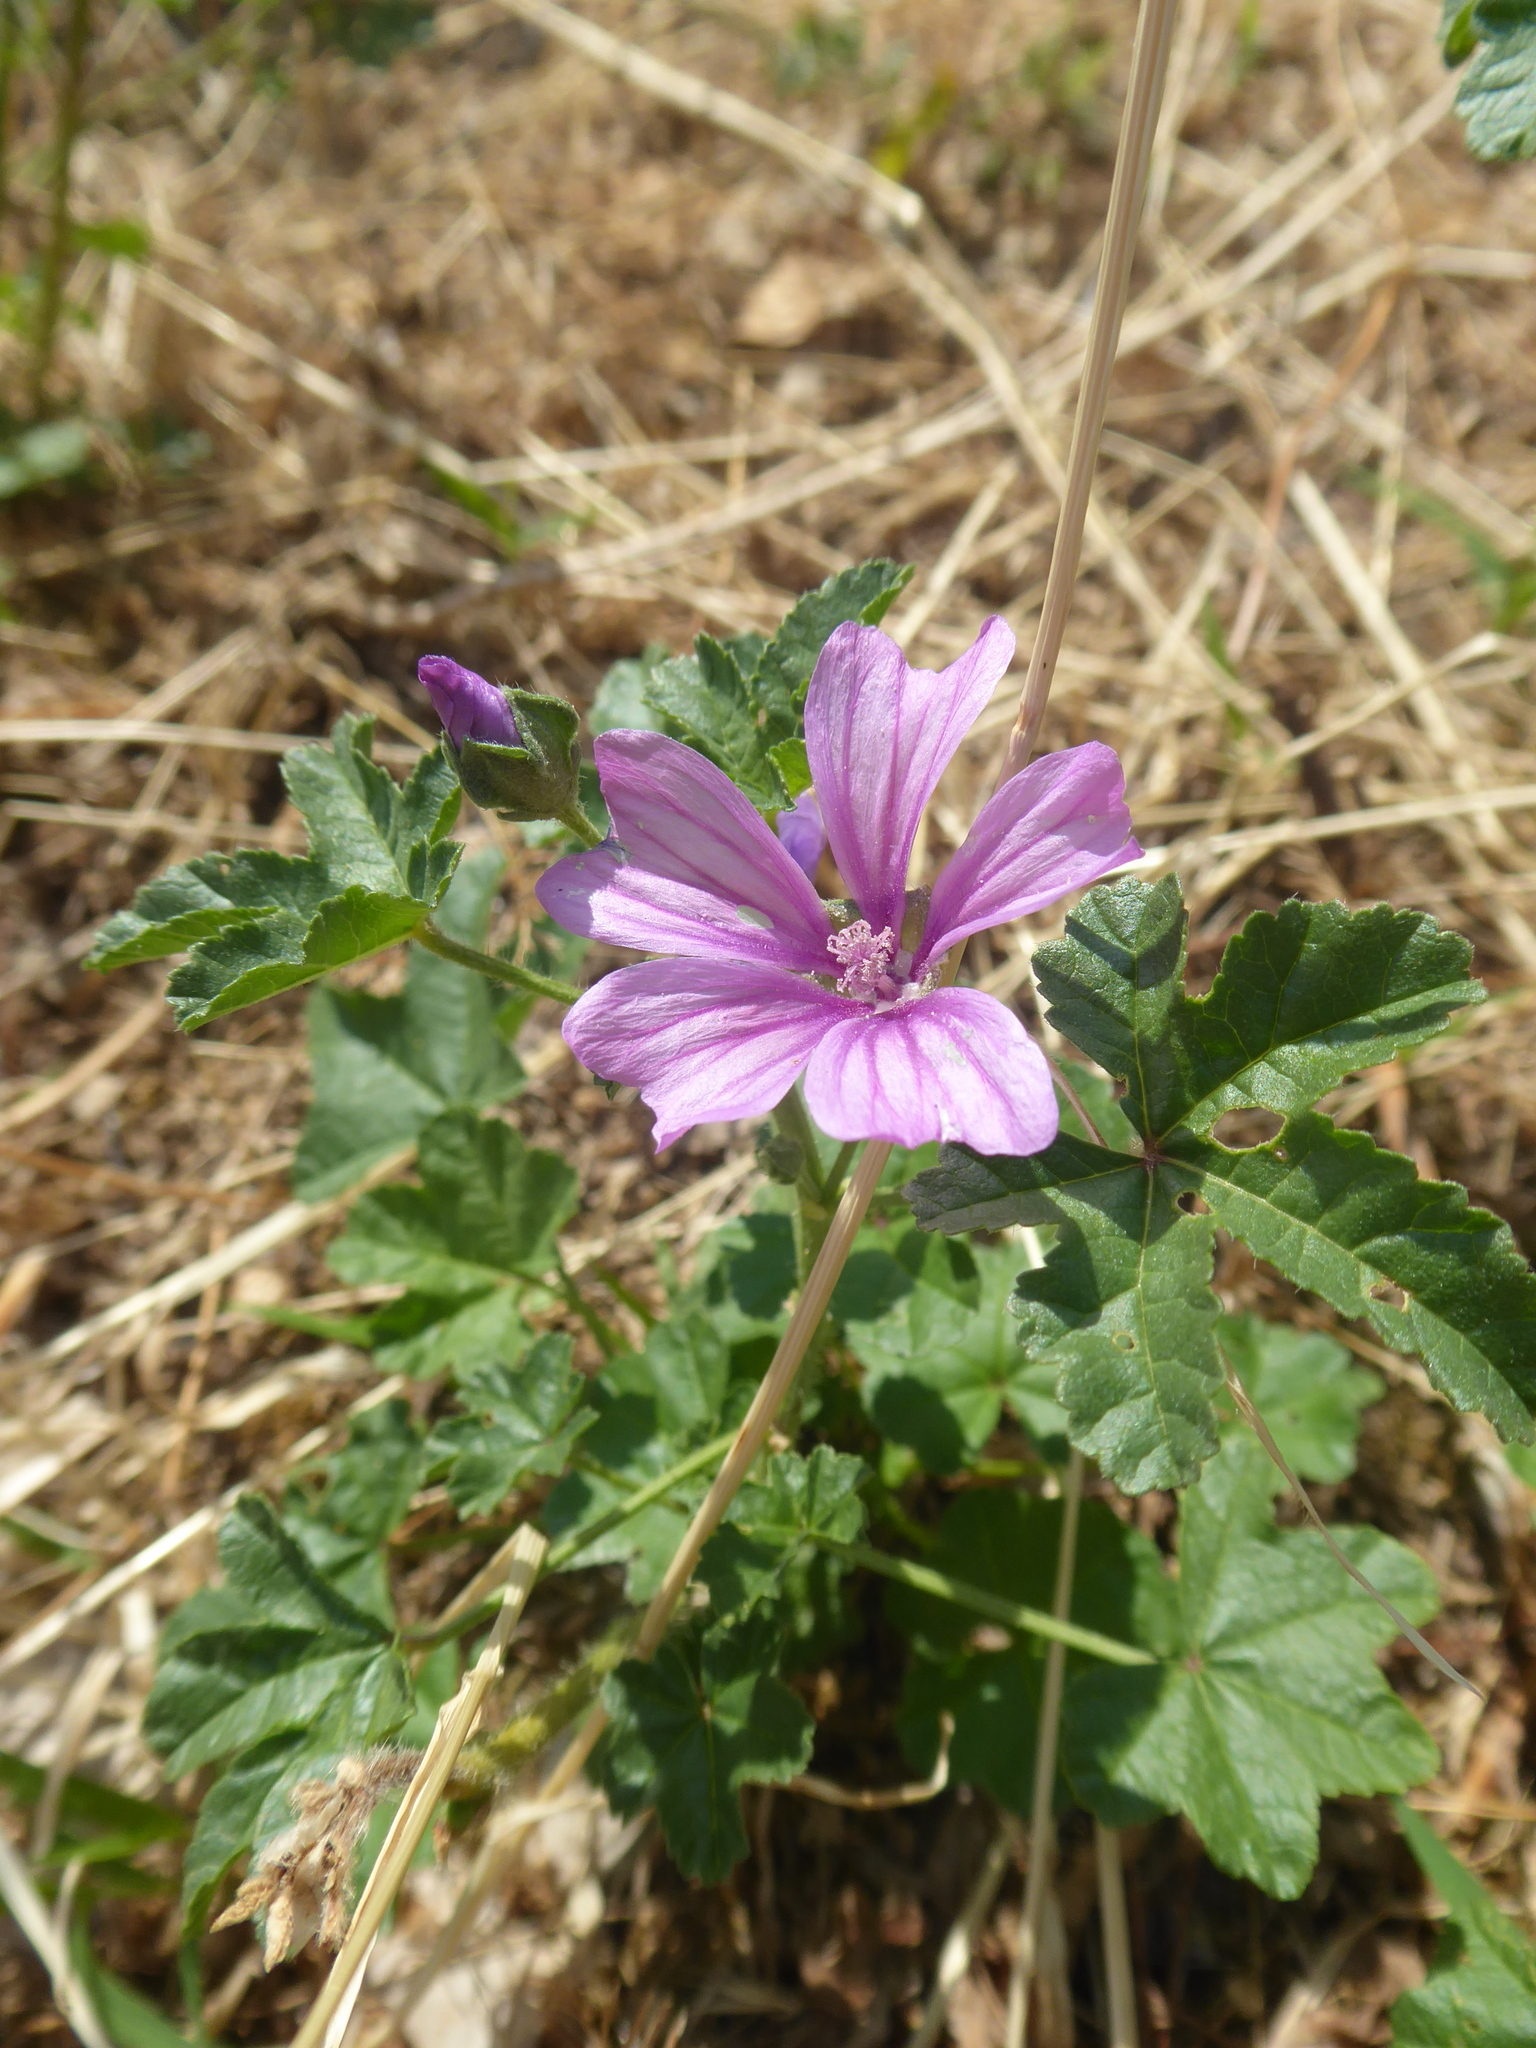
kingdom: Plantae
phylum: Tracheophyta
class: Magnoliopsida
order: Malvales
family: Malvaceae
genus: Malva
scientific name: Malva sylvestris
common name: Common mallow
